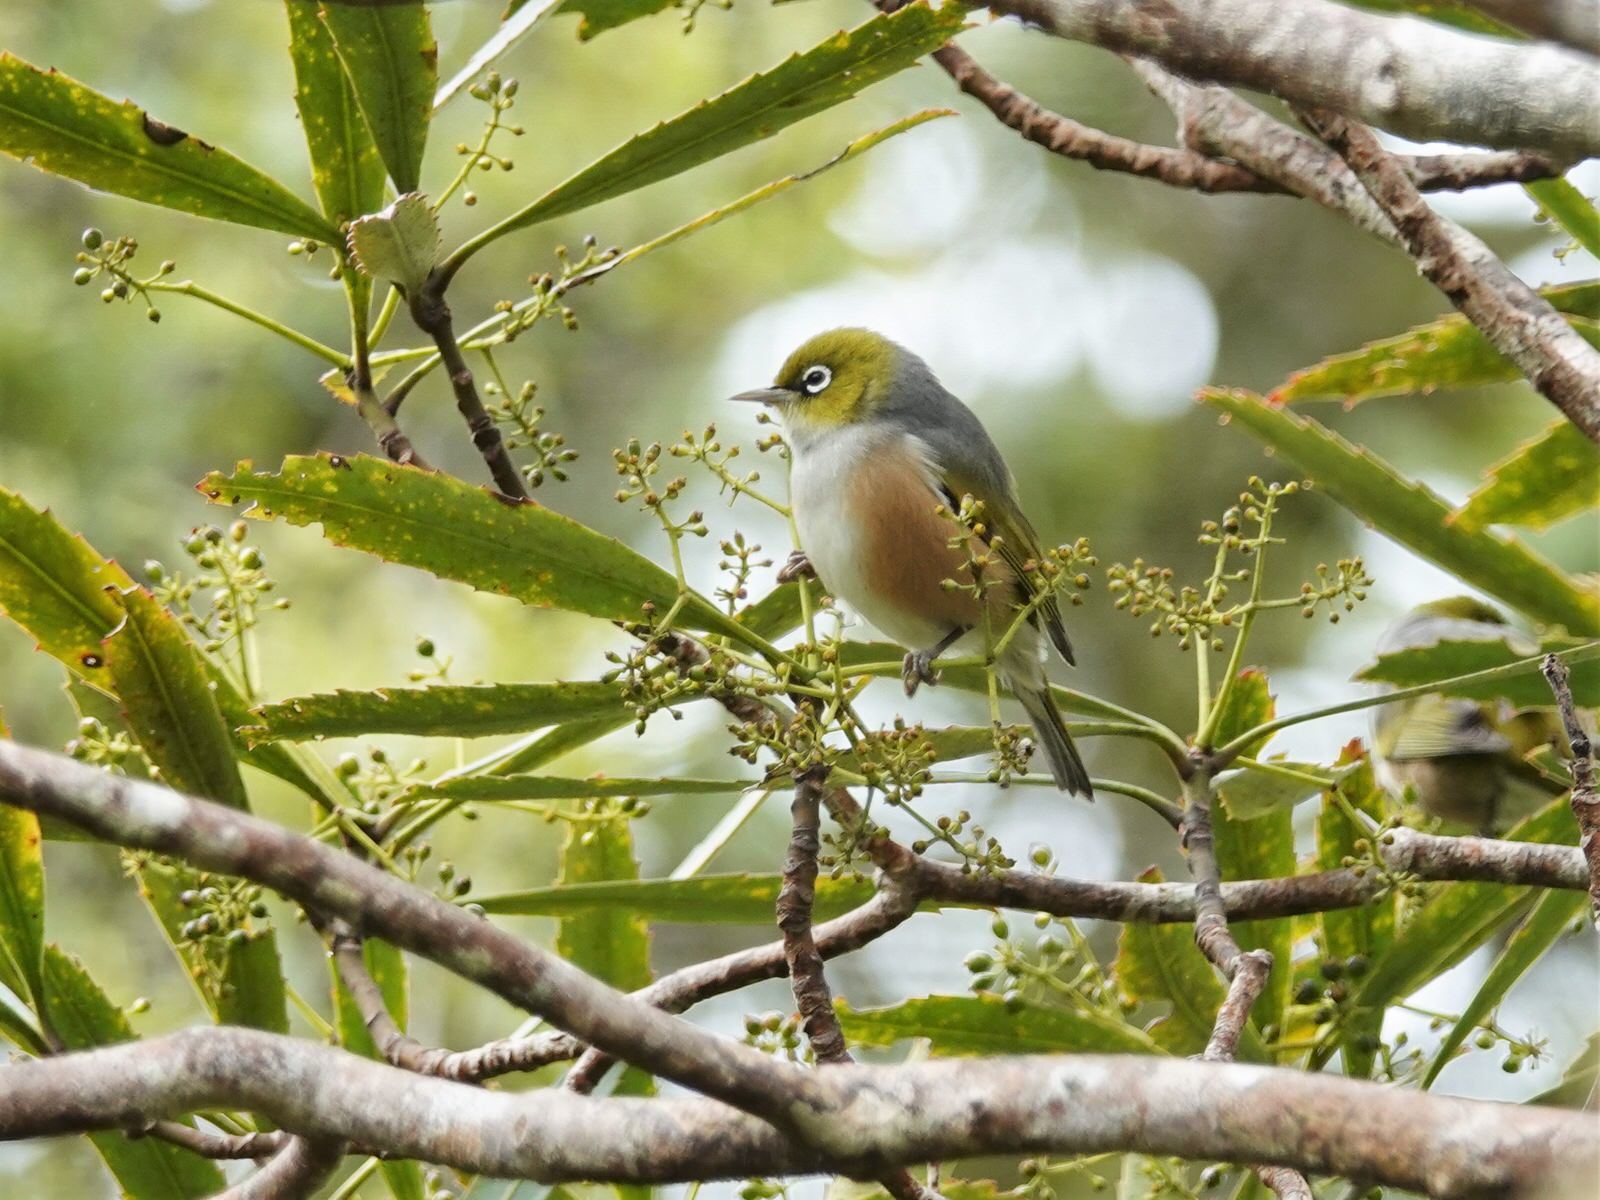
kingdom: Animalia
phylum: Chordata
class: Aves
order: Passeriformes
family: Zosteropidae
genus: Zosterops
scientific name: Zosterops lateralis
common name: Silvereye
